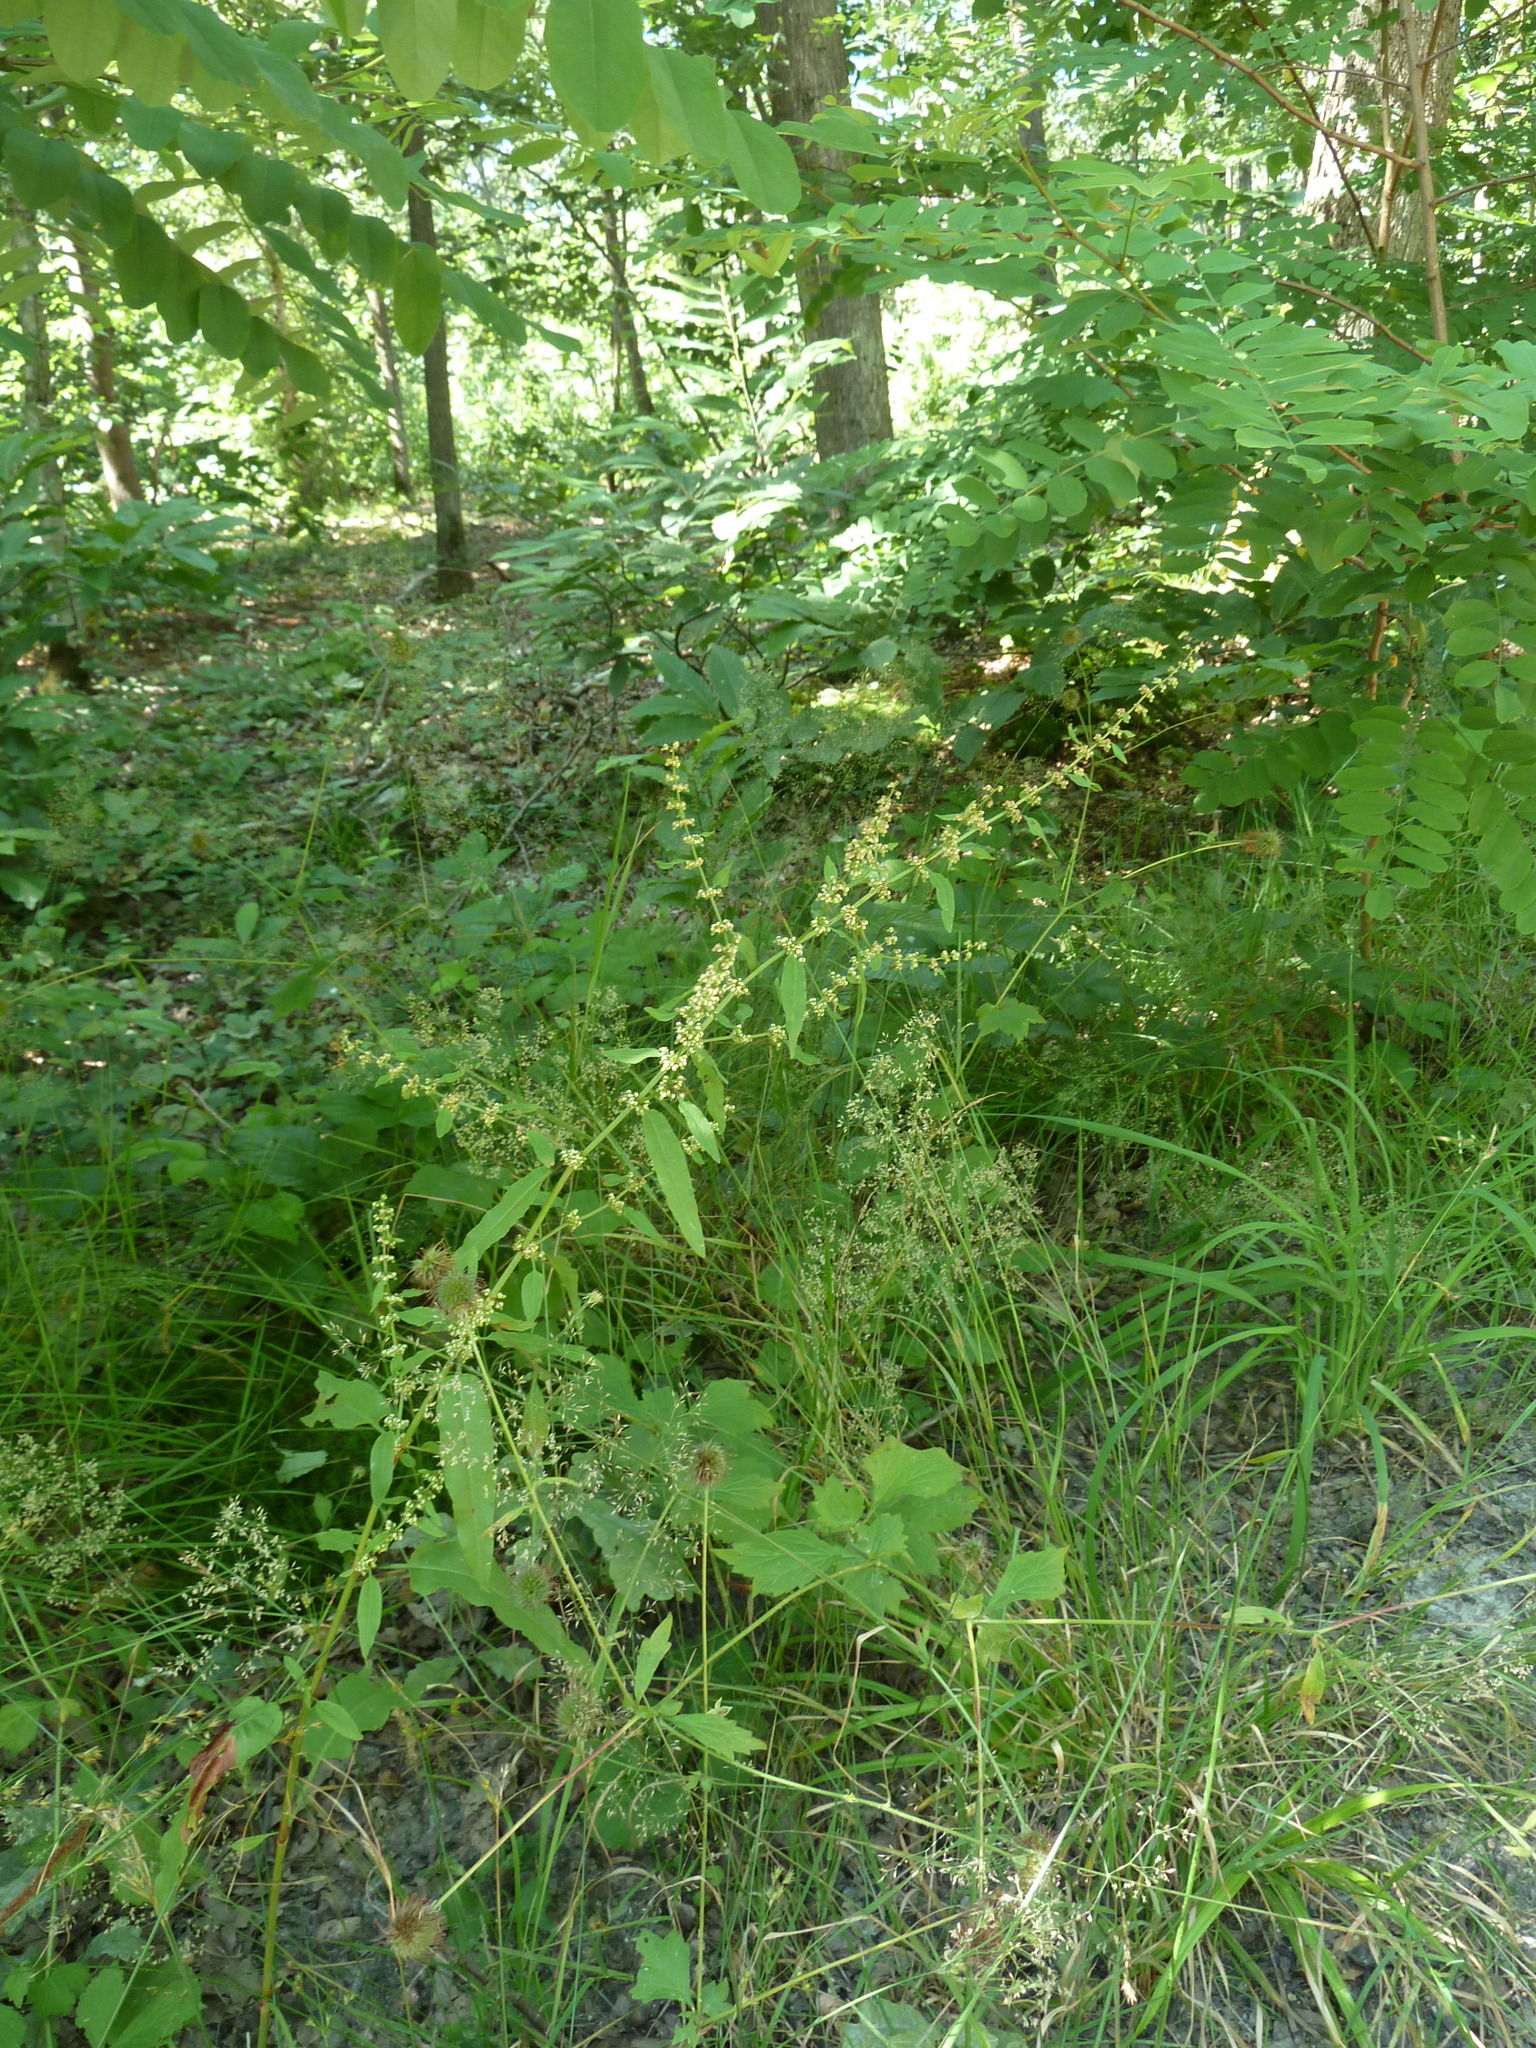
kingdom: Plantae
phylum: Tracheophyta
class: Magnoliopsida
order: Caryophyllales
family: Polygonaceae
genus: Rumex
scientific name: Rumex conglomeratus
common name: Clustered dock
